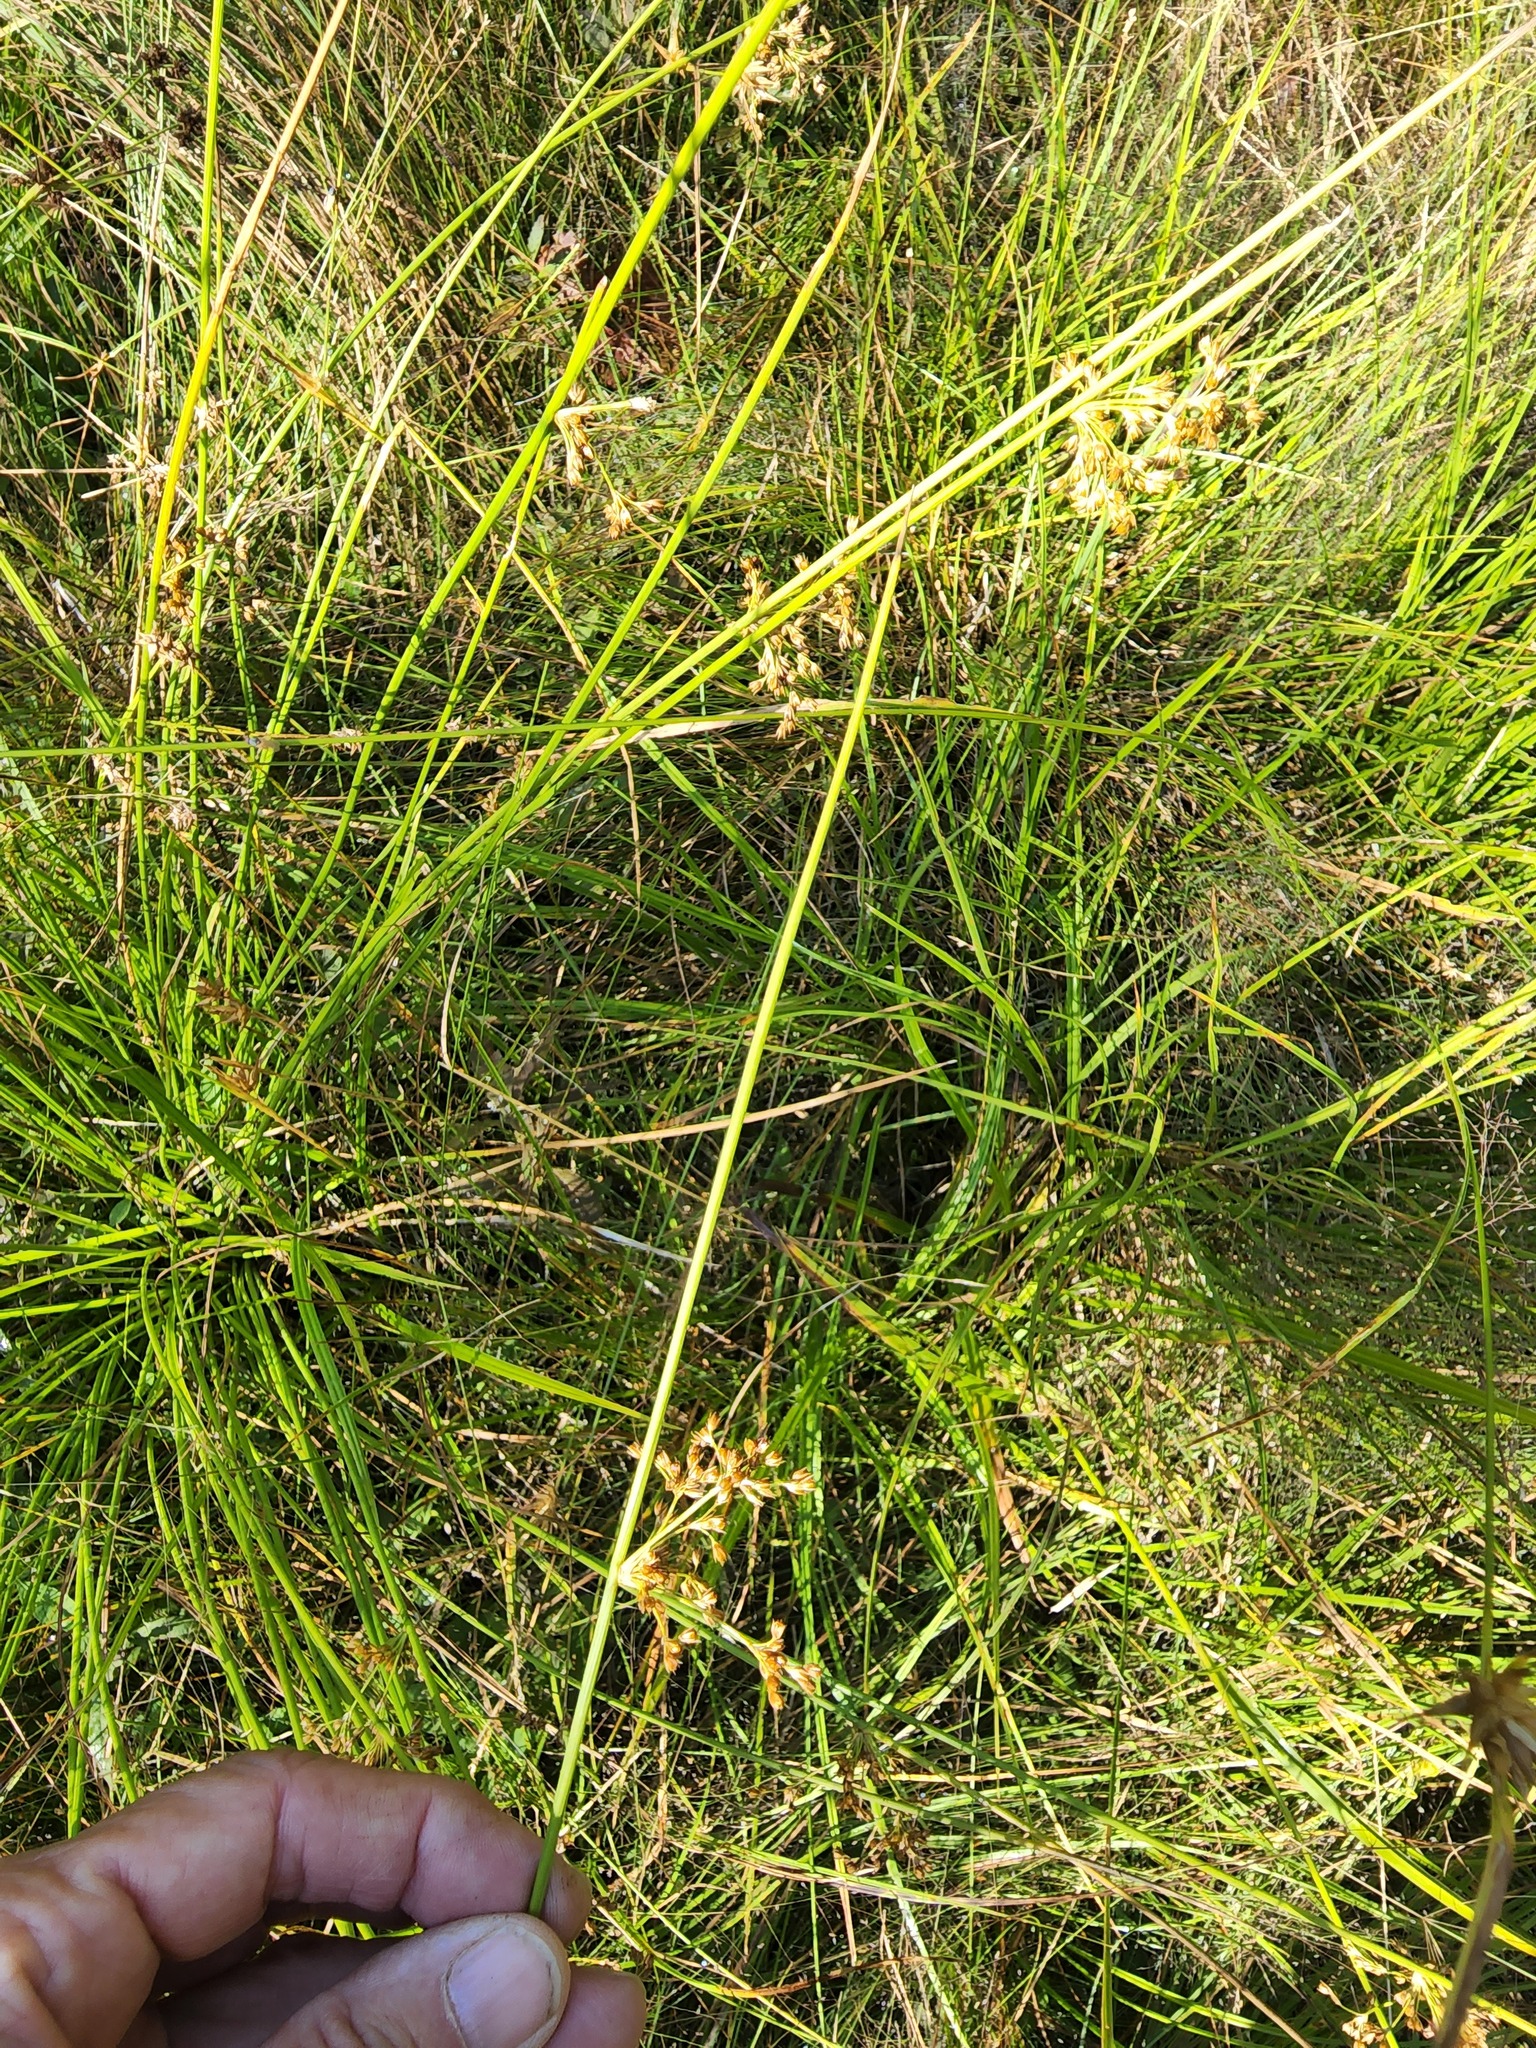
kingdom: Plantae
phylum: Tracheophyta
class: Liliopsida
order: Poales
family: Juncaceae
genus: Juncus
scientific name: Juncus effusus
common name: Soft rush
